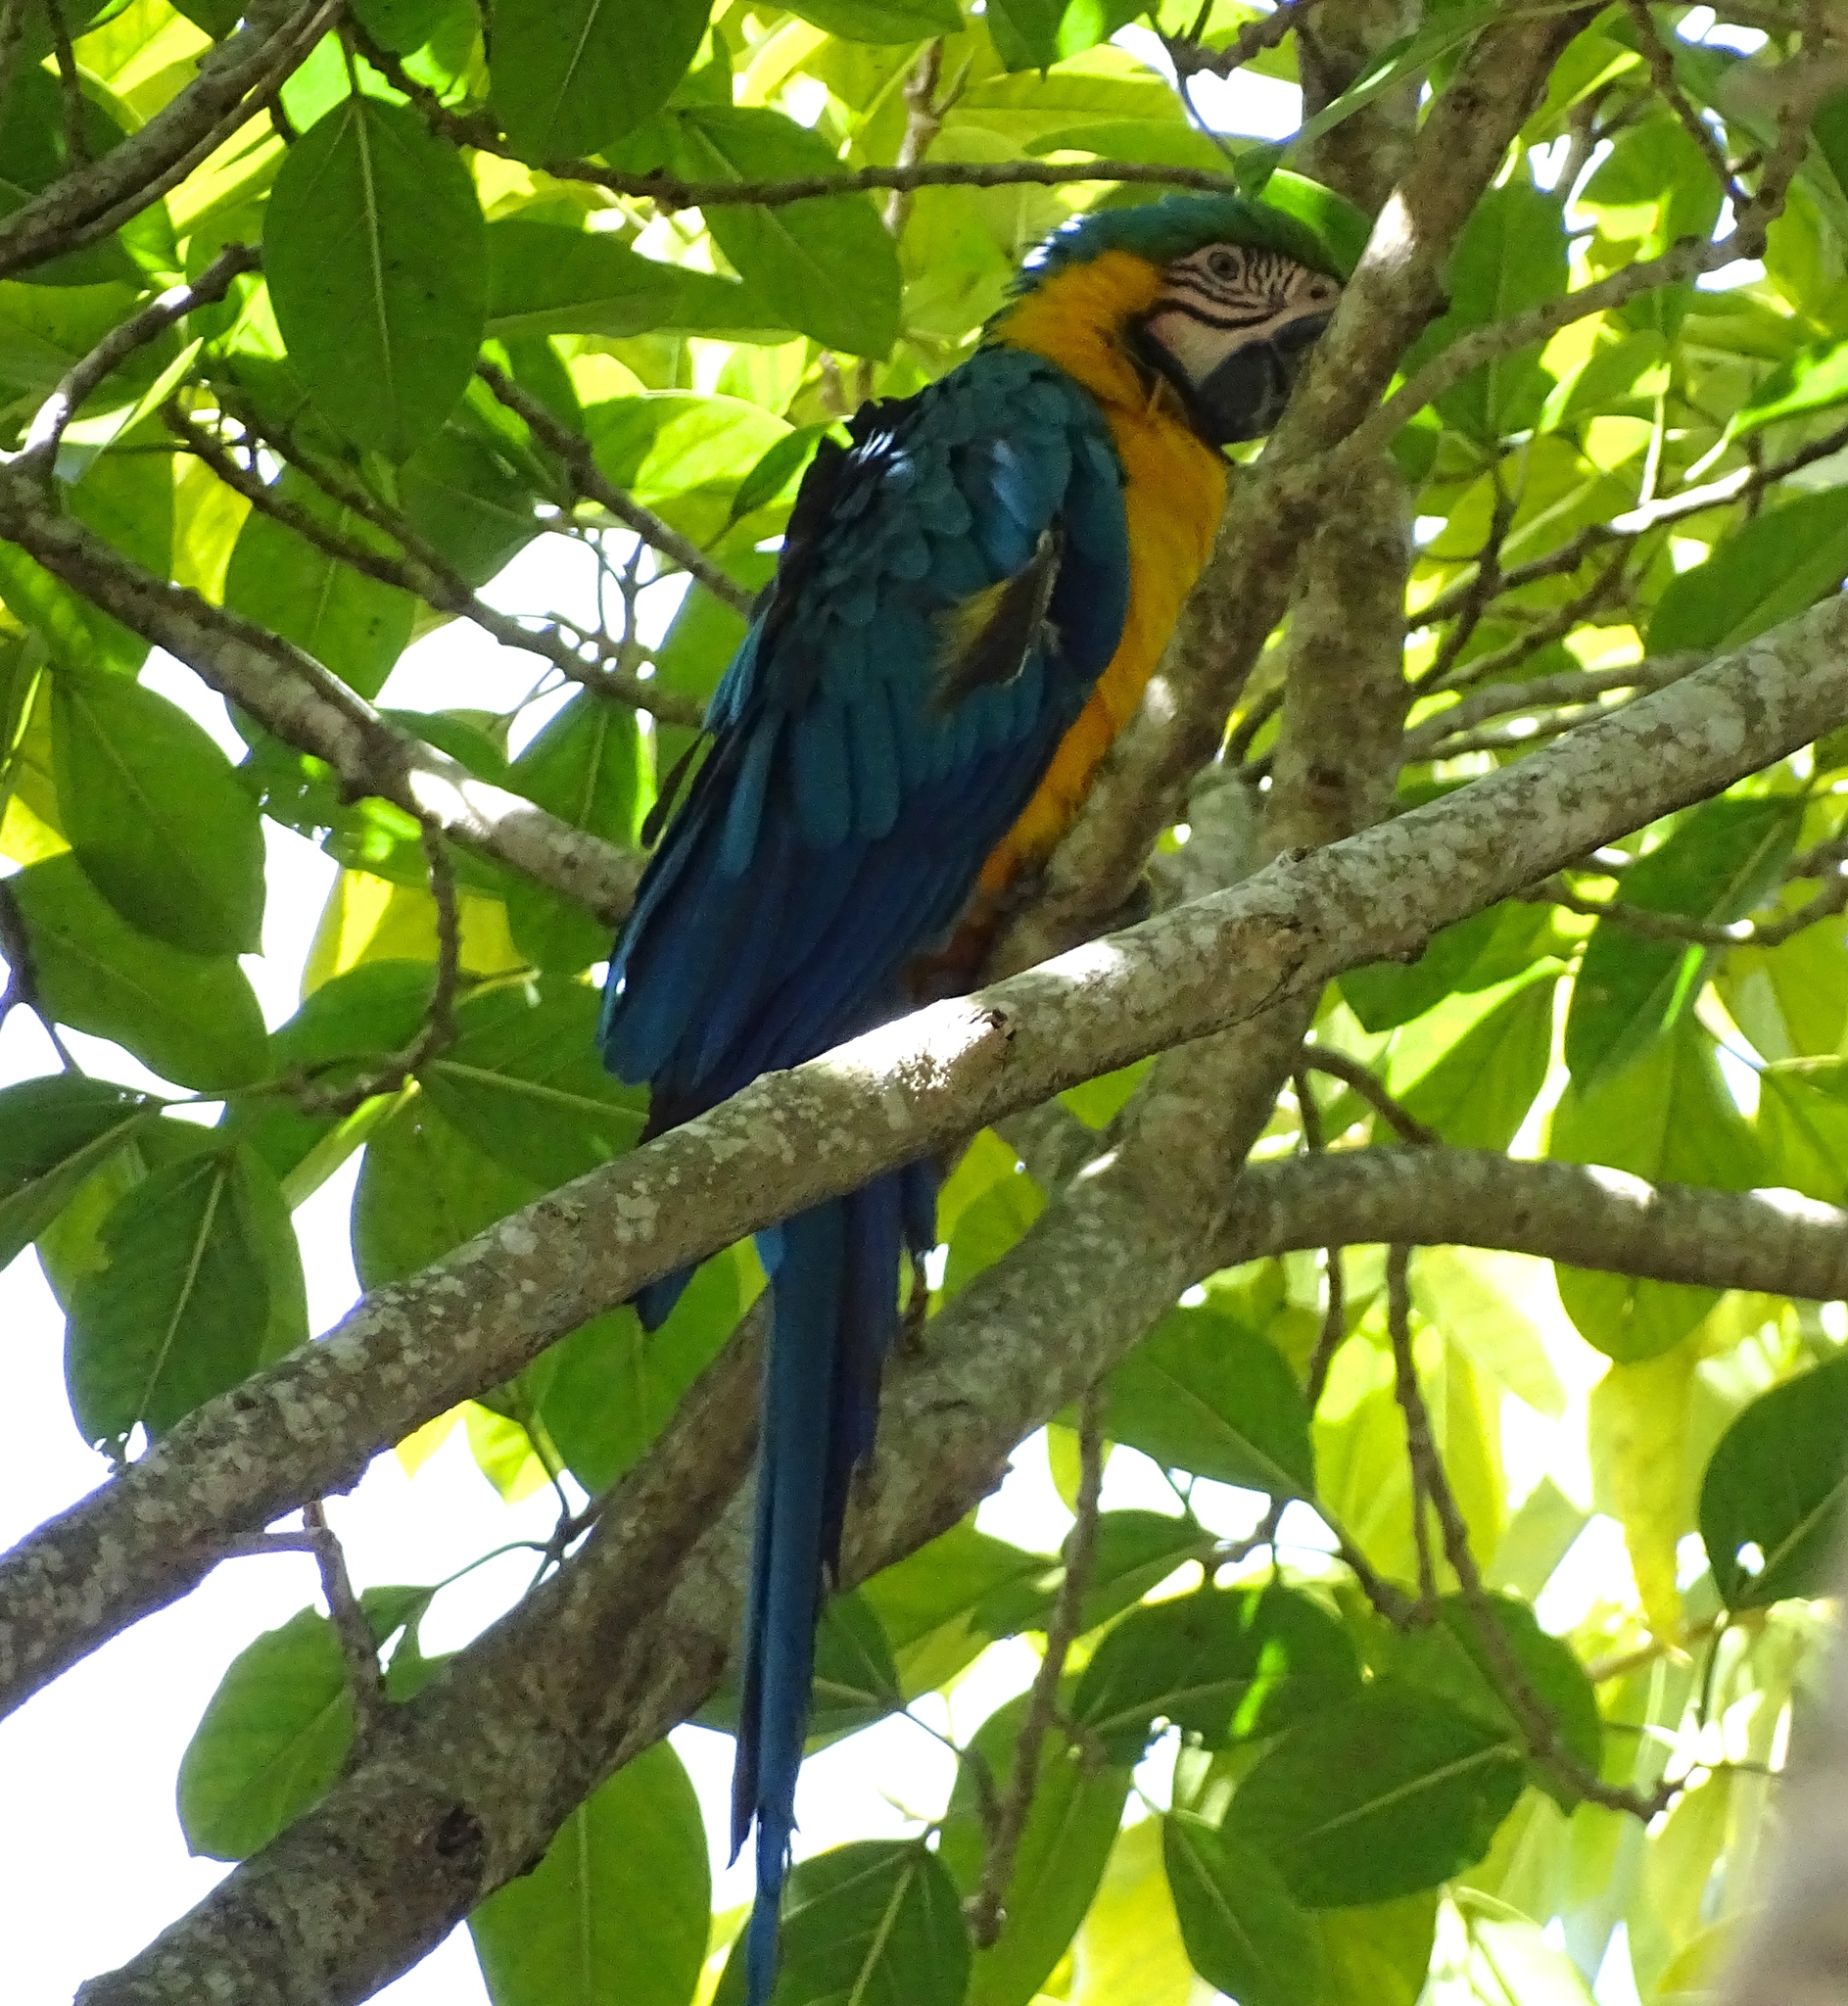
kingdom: Animalia
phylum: Chordata
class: Aves
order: Psittaciformes
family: Psittacidae
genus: Ara
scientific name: Ara ararauna
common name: Blue-and-yellow macaw
